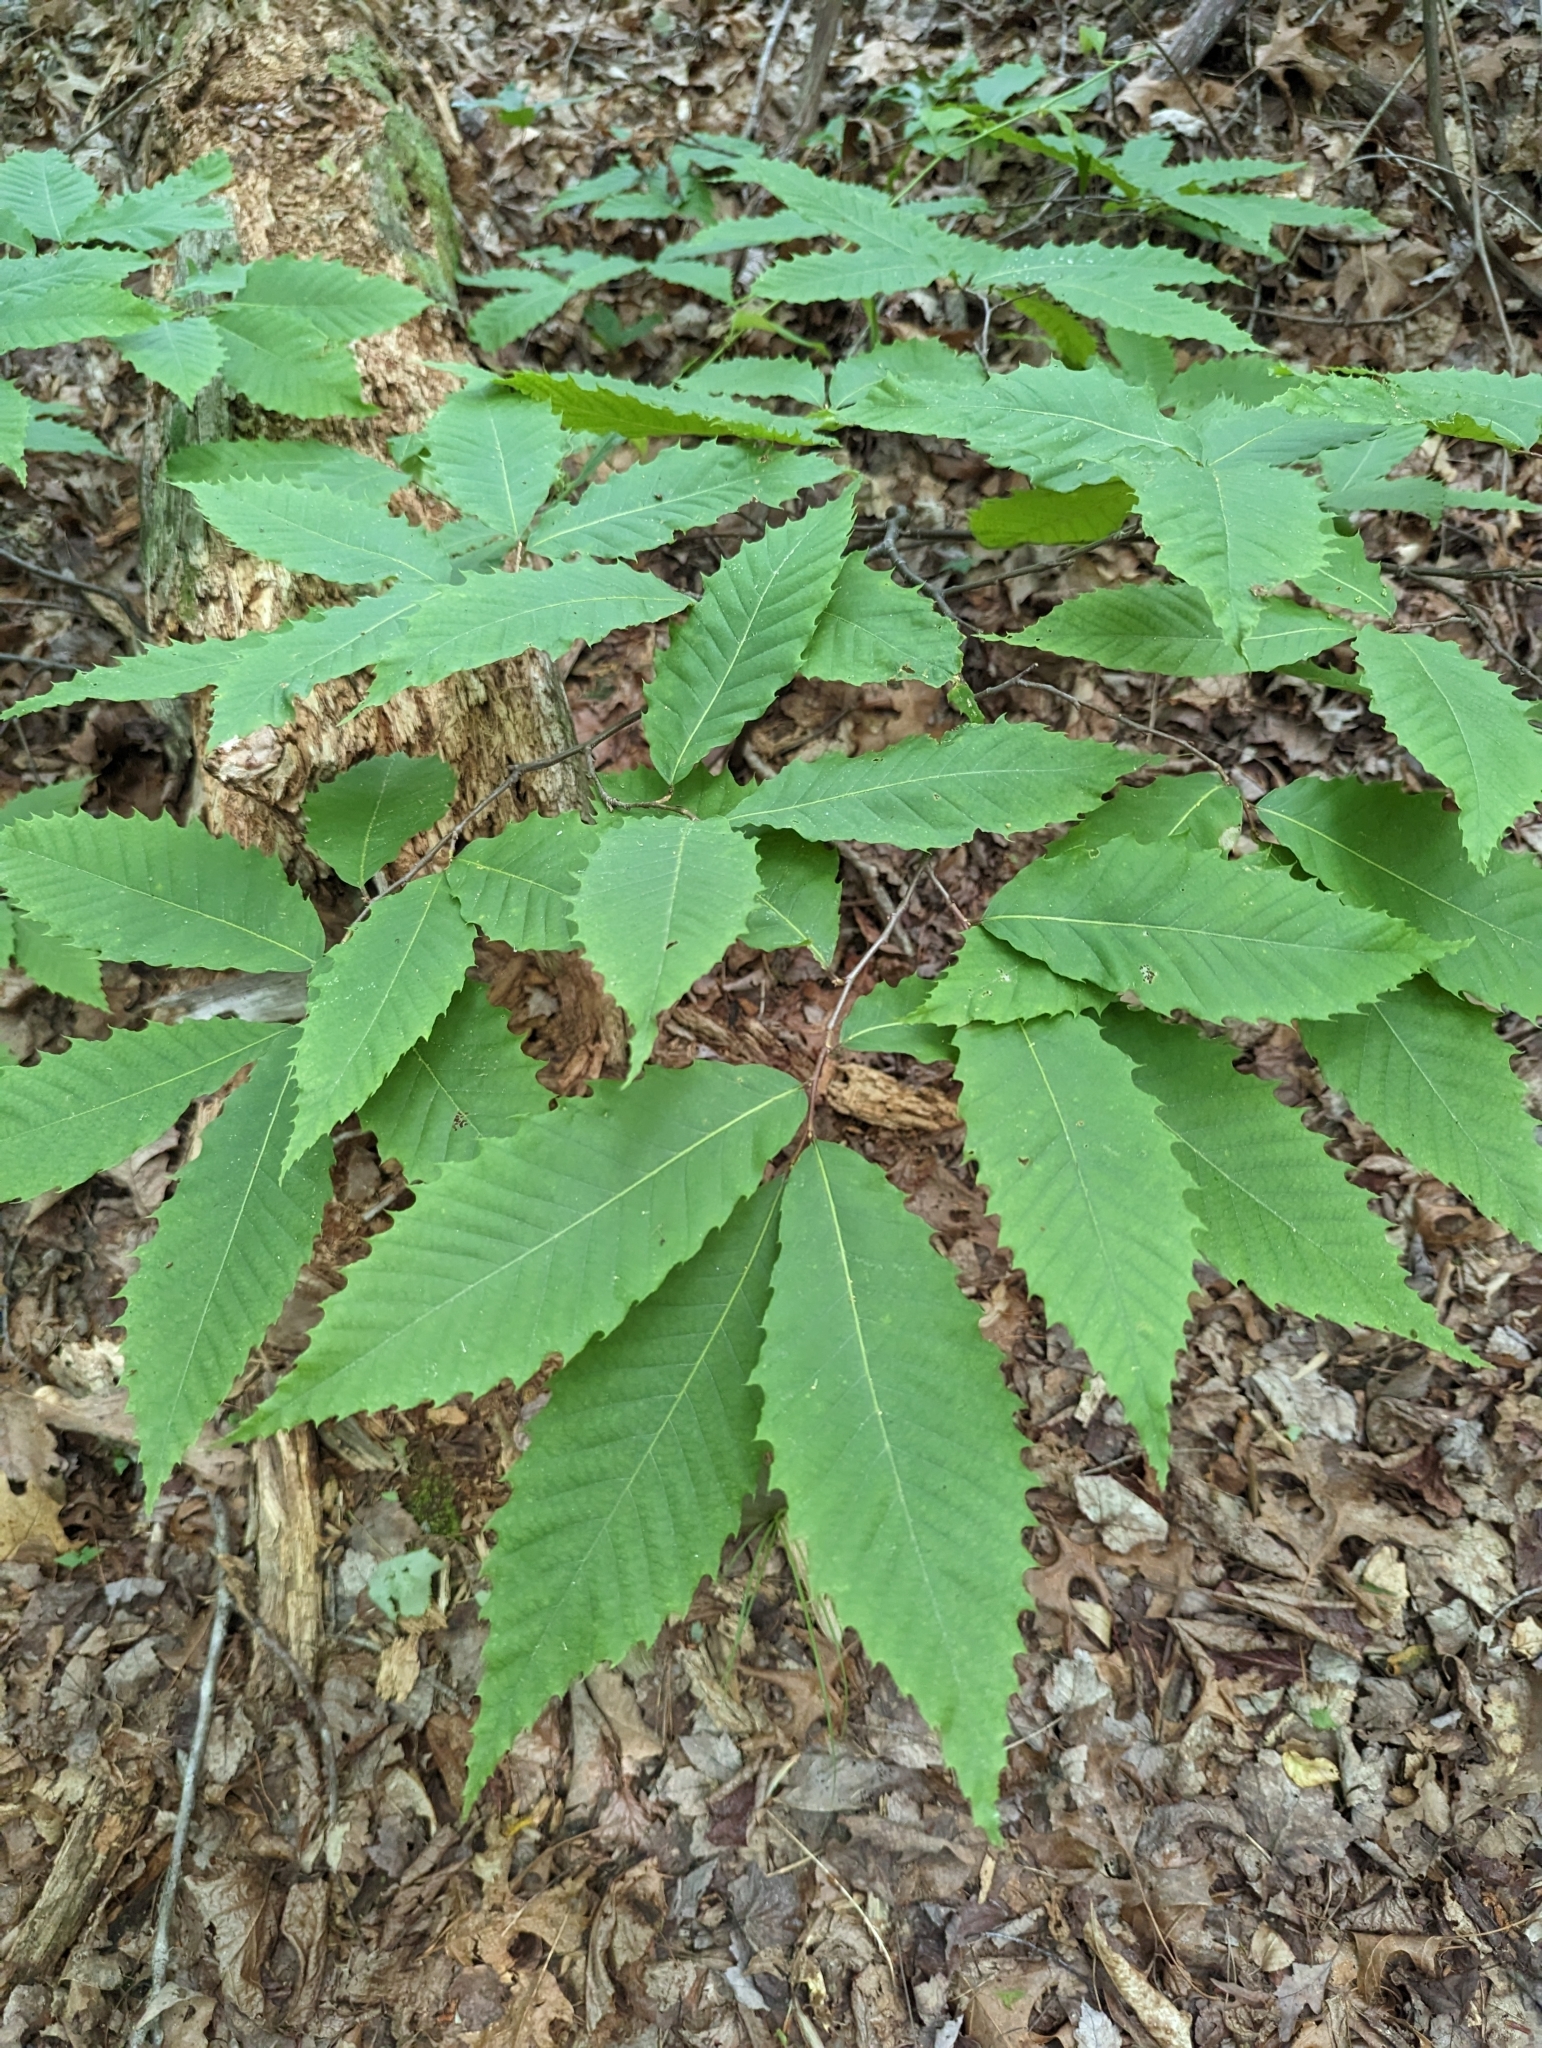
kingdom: Plantae
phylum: Tracheophyta
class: Magnoliopsida
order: Fagales
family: Fagaceae
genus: Castanea
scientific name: Castanea dentata
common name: American chestnut
